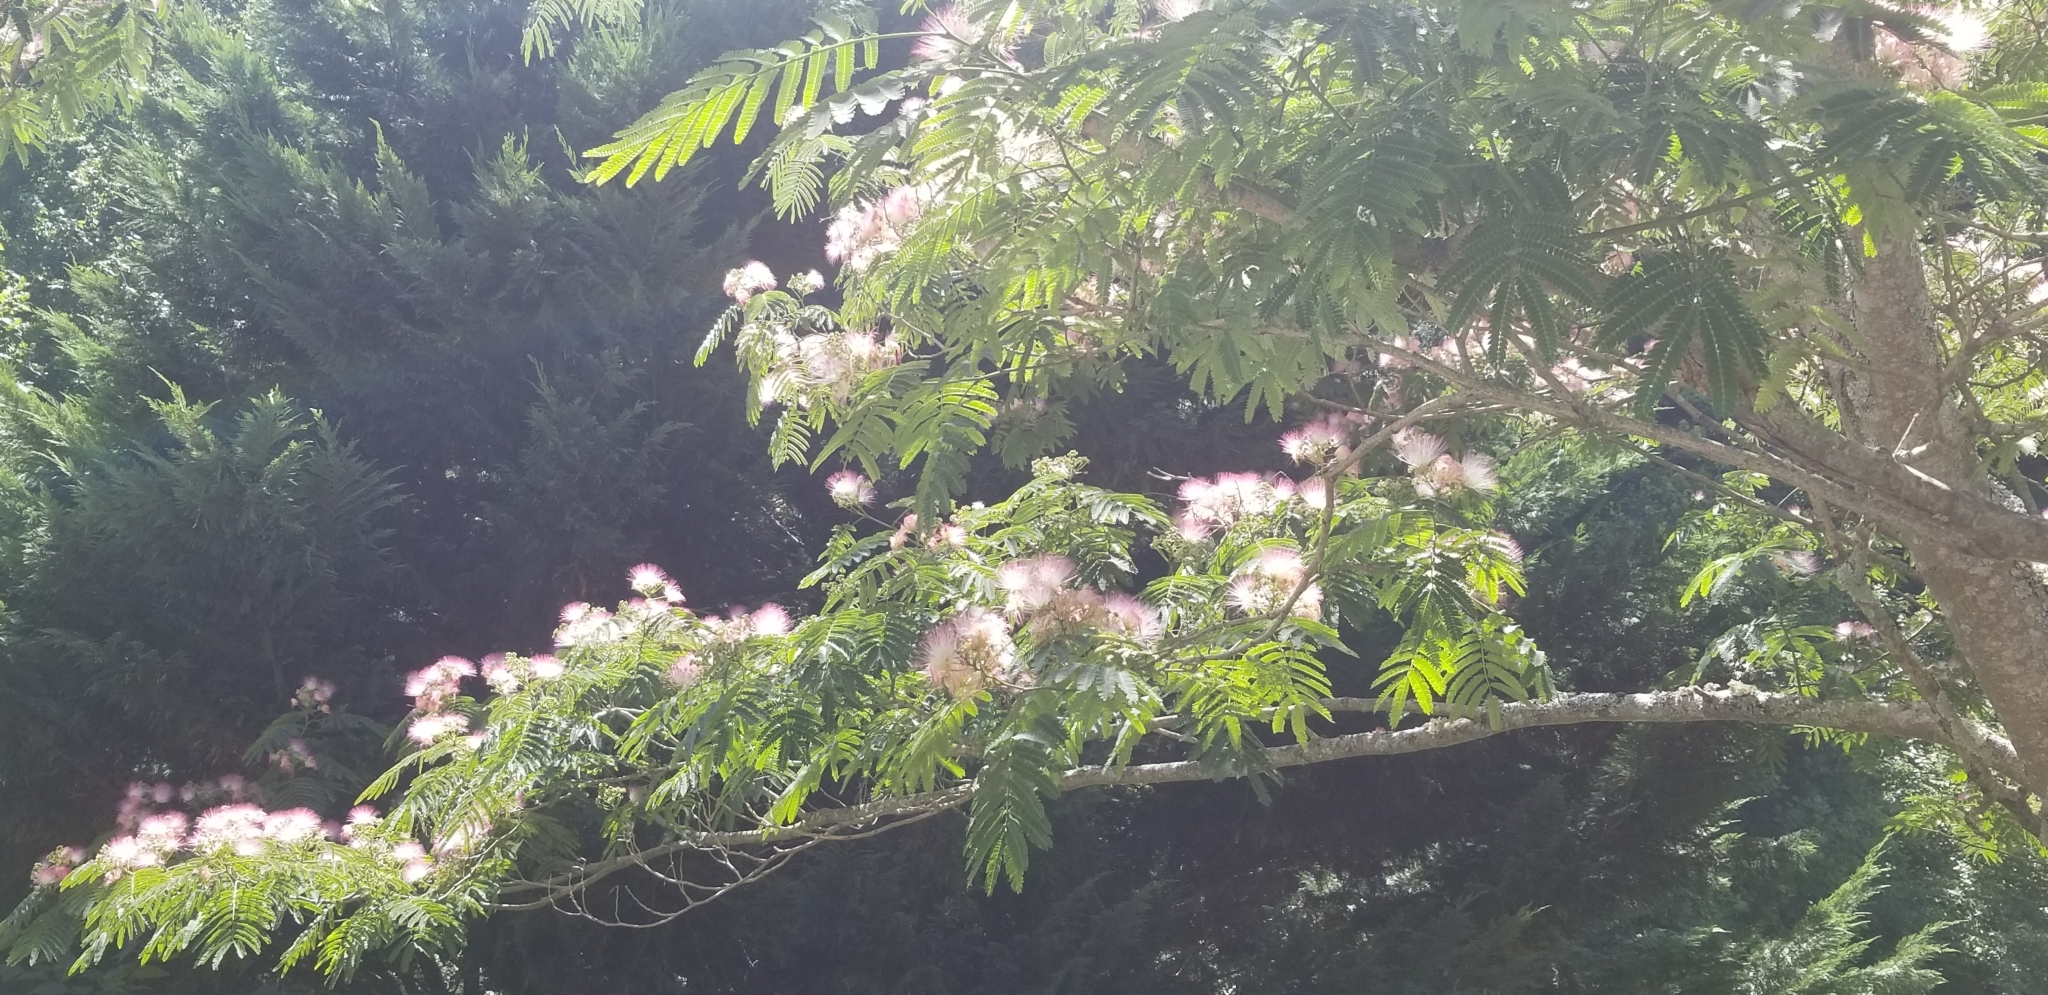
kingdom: Plantae
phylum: Tracheophyta
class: Magnoliopsida
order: Fabales
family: Fabaceae
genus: Albizia
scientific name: Albizia julibrissin
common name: Silktree
